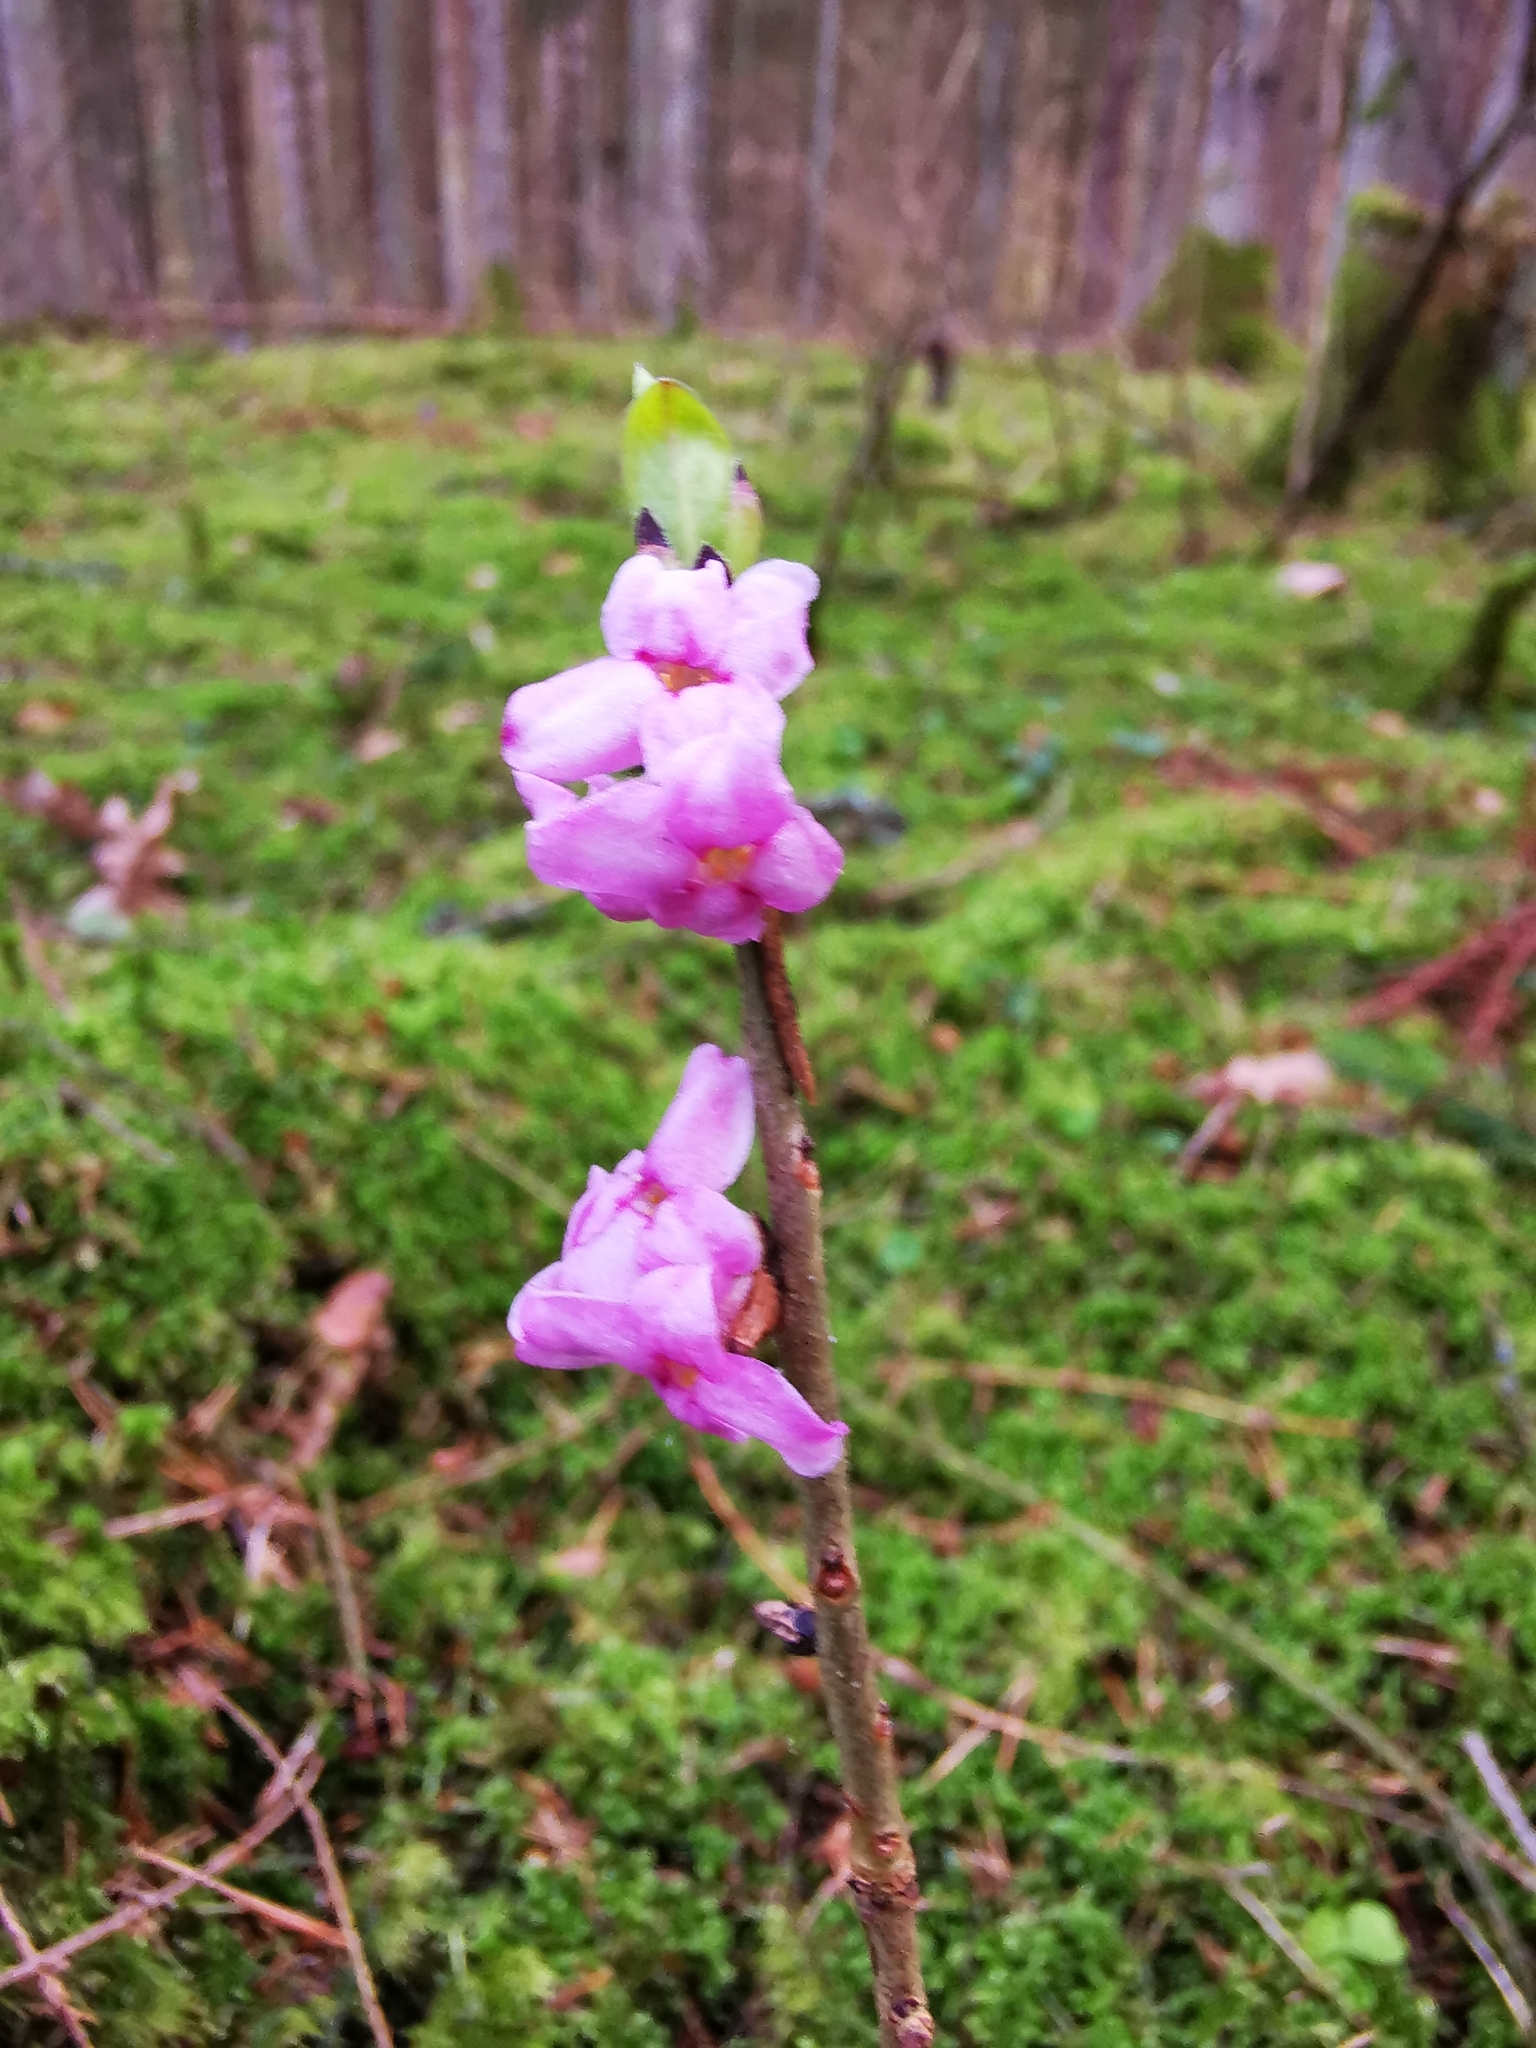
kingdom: Plantae
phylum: Tracheophyta
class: Magnoliopsida
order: Malvales
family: Thymelaeaceae
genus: Daphne
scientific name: Daphne mezereum
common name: Mezereon
